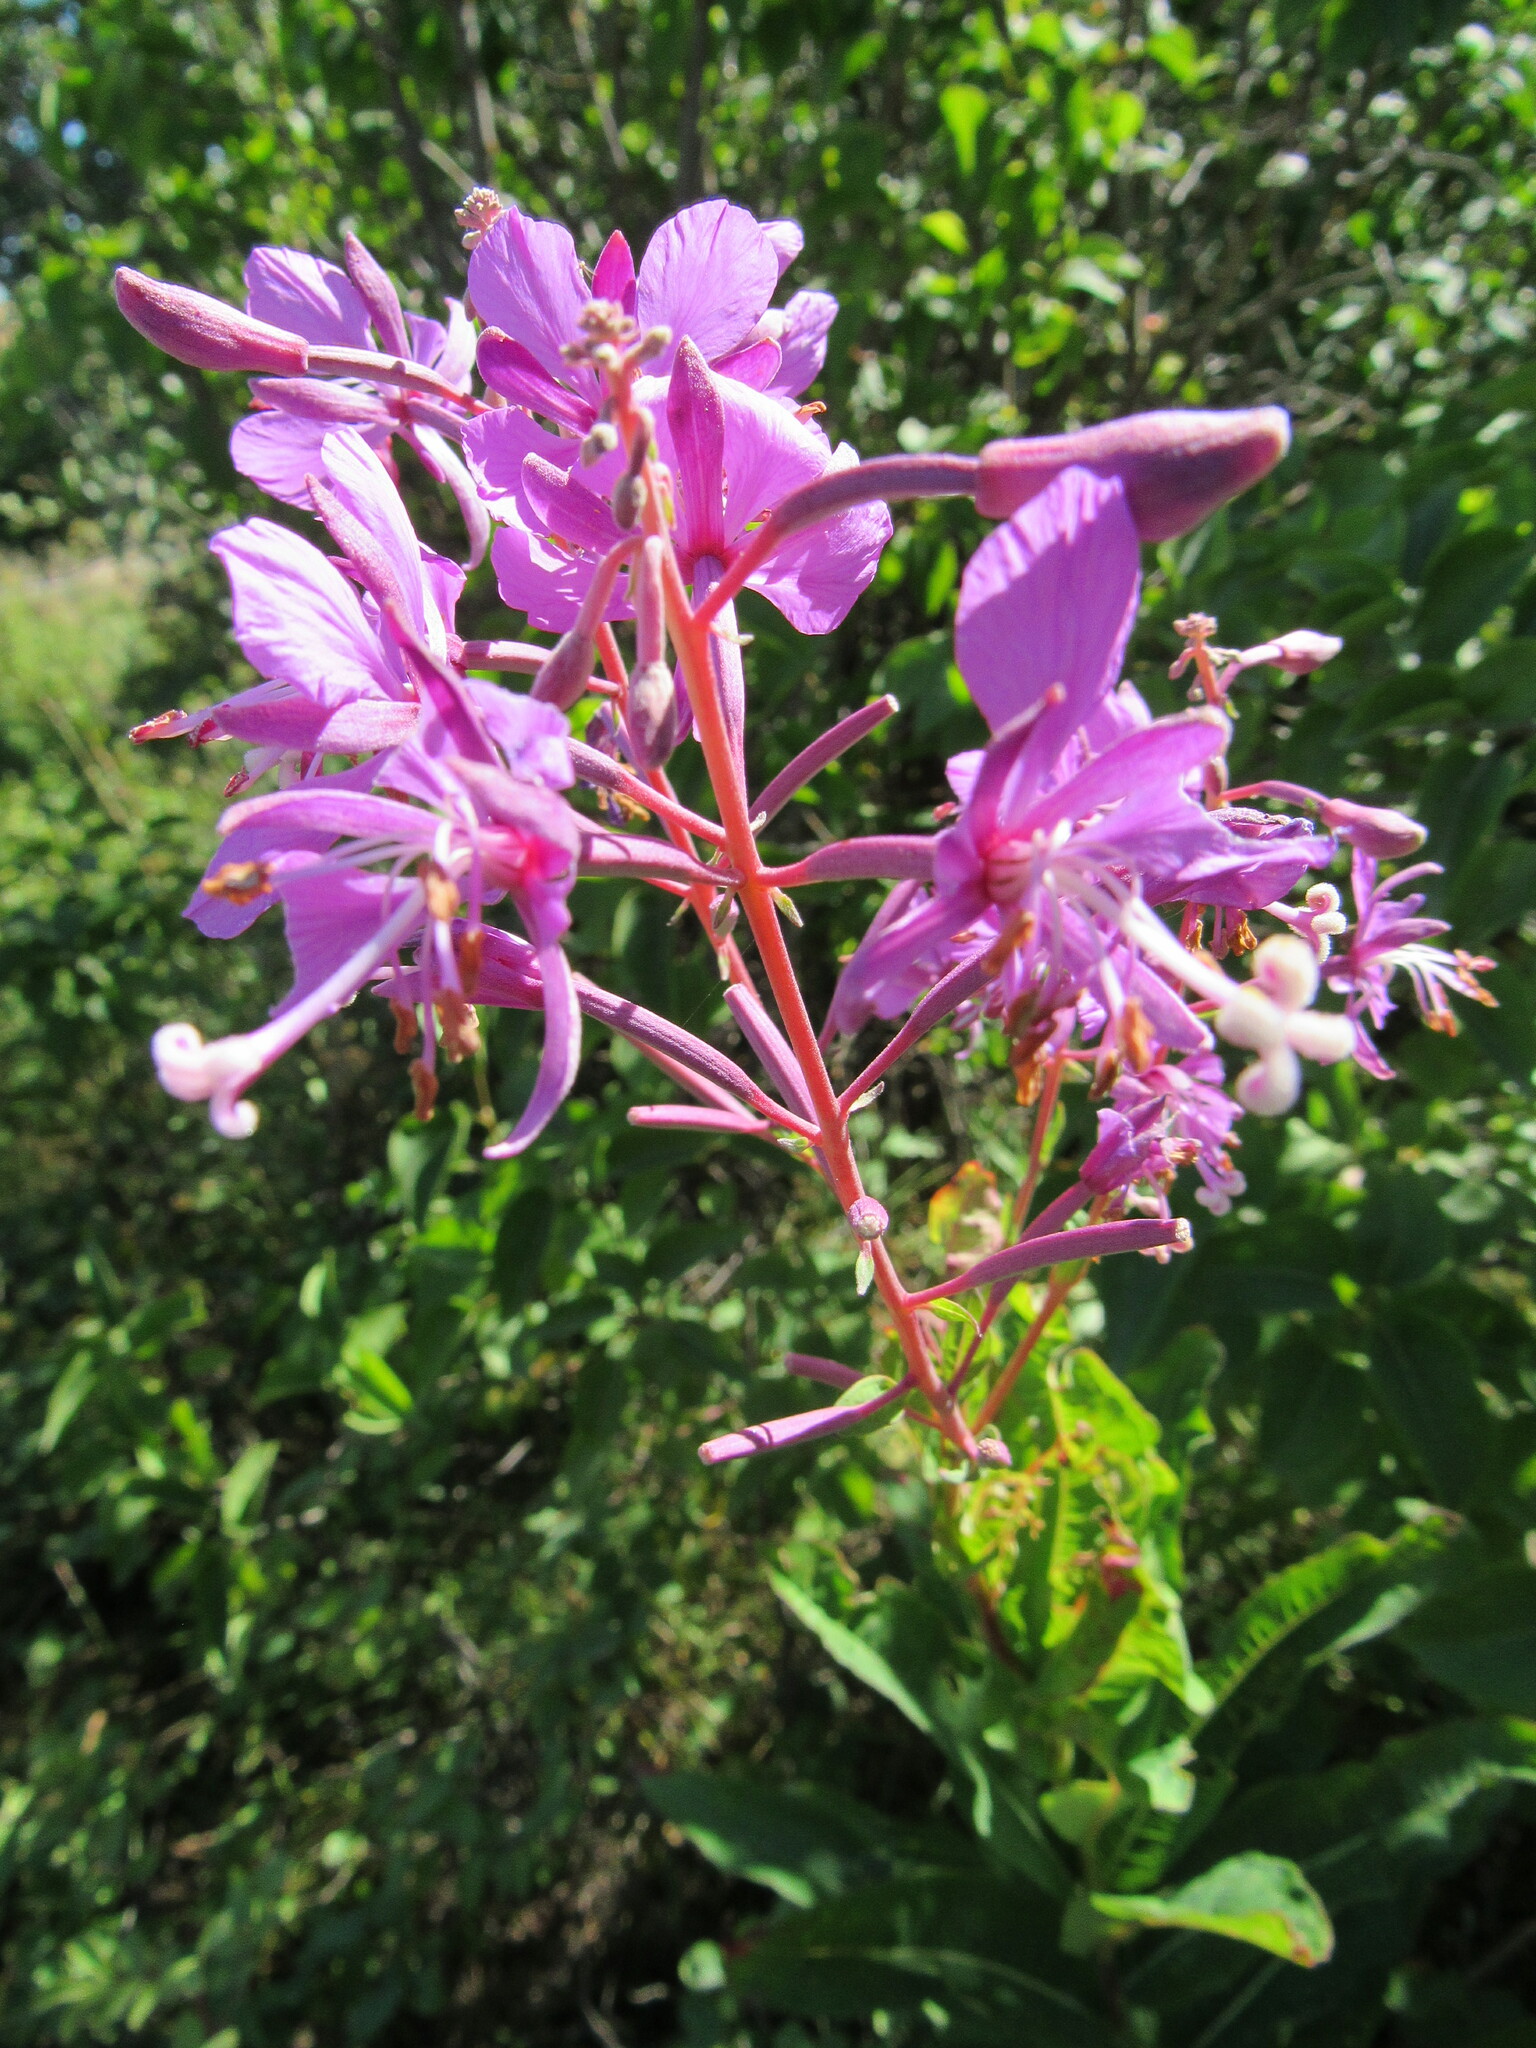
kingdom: Plantae
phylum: Tracheophyta
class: Magnoliopsida
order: Myrtales
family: Onagraceae
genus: Chamaenerion
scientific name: Chamaenerion angustifolium
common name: Fireweed
